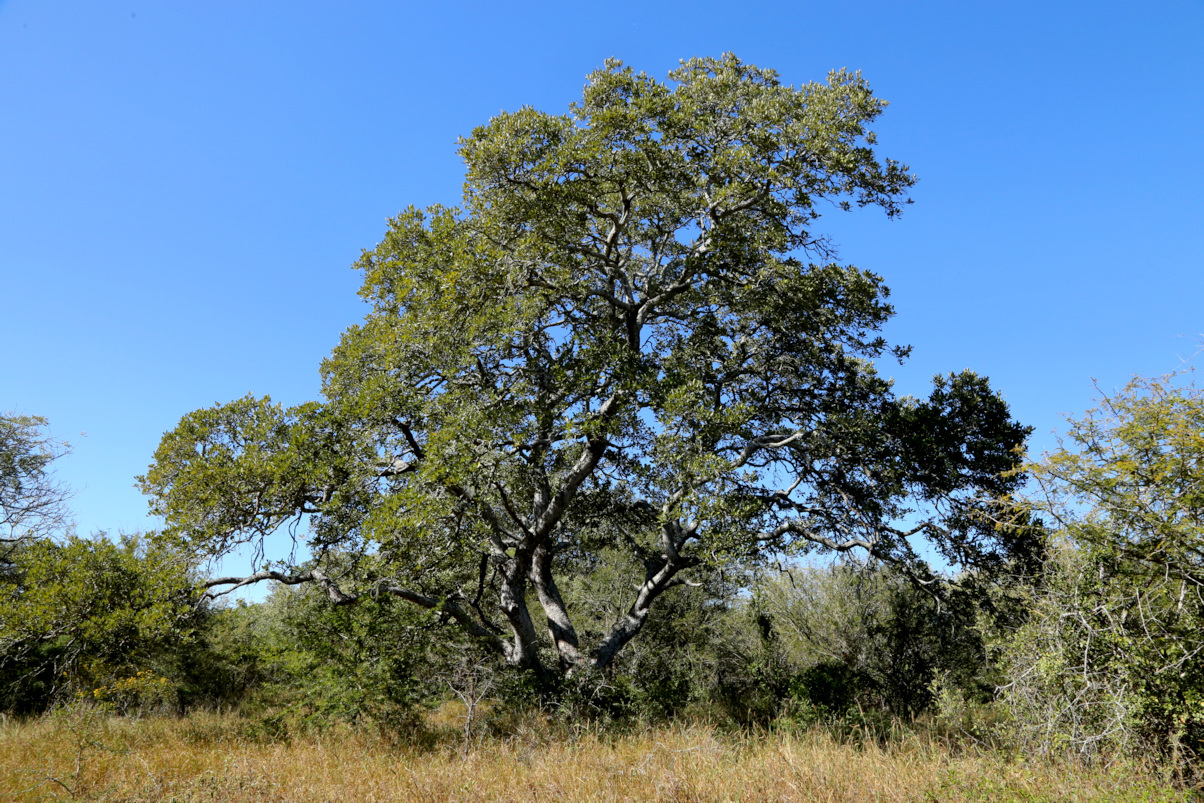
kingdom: Plantae
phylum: Tracheophyta
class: Magnoliopsida
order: Fabales
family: Fabaceae
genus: Philenoptera
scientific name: Philenoptera violacea
